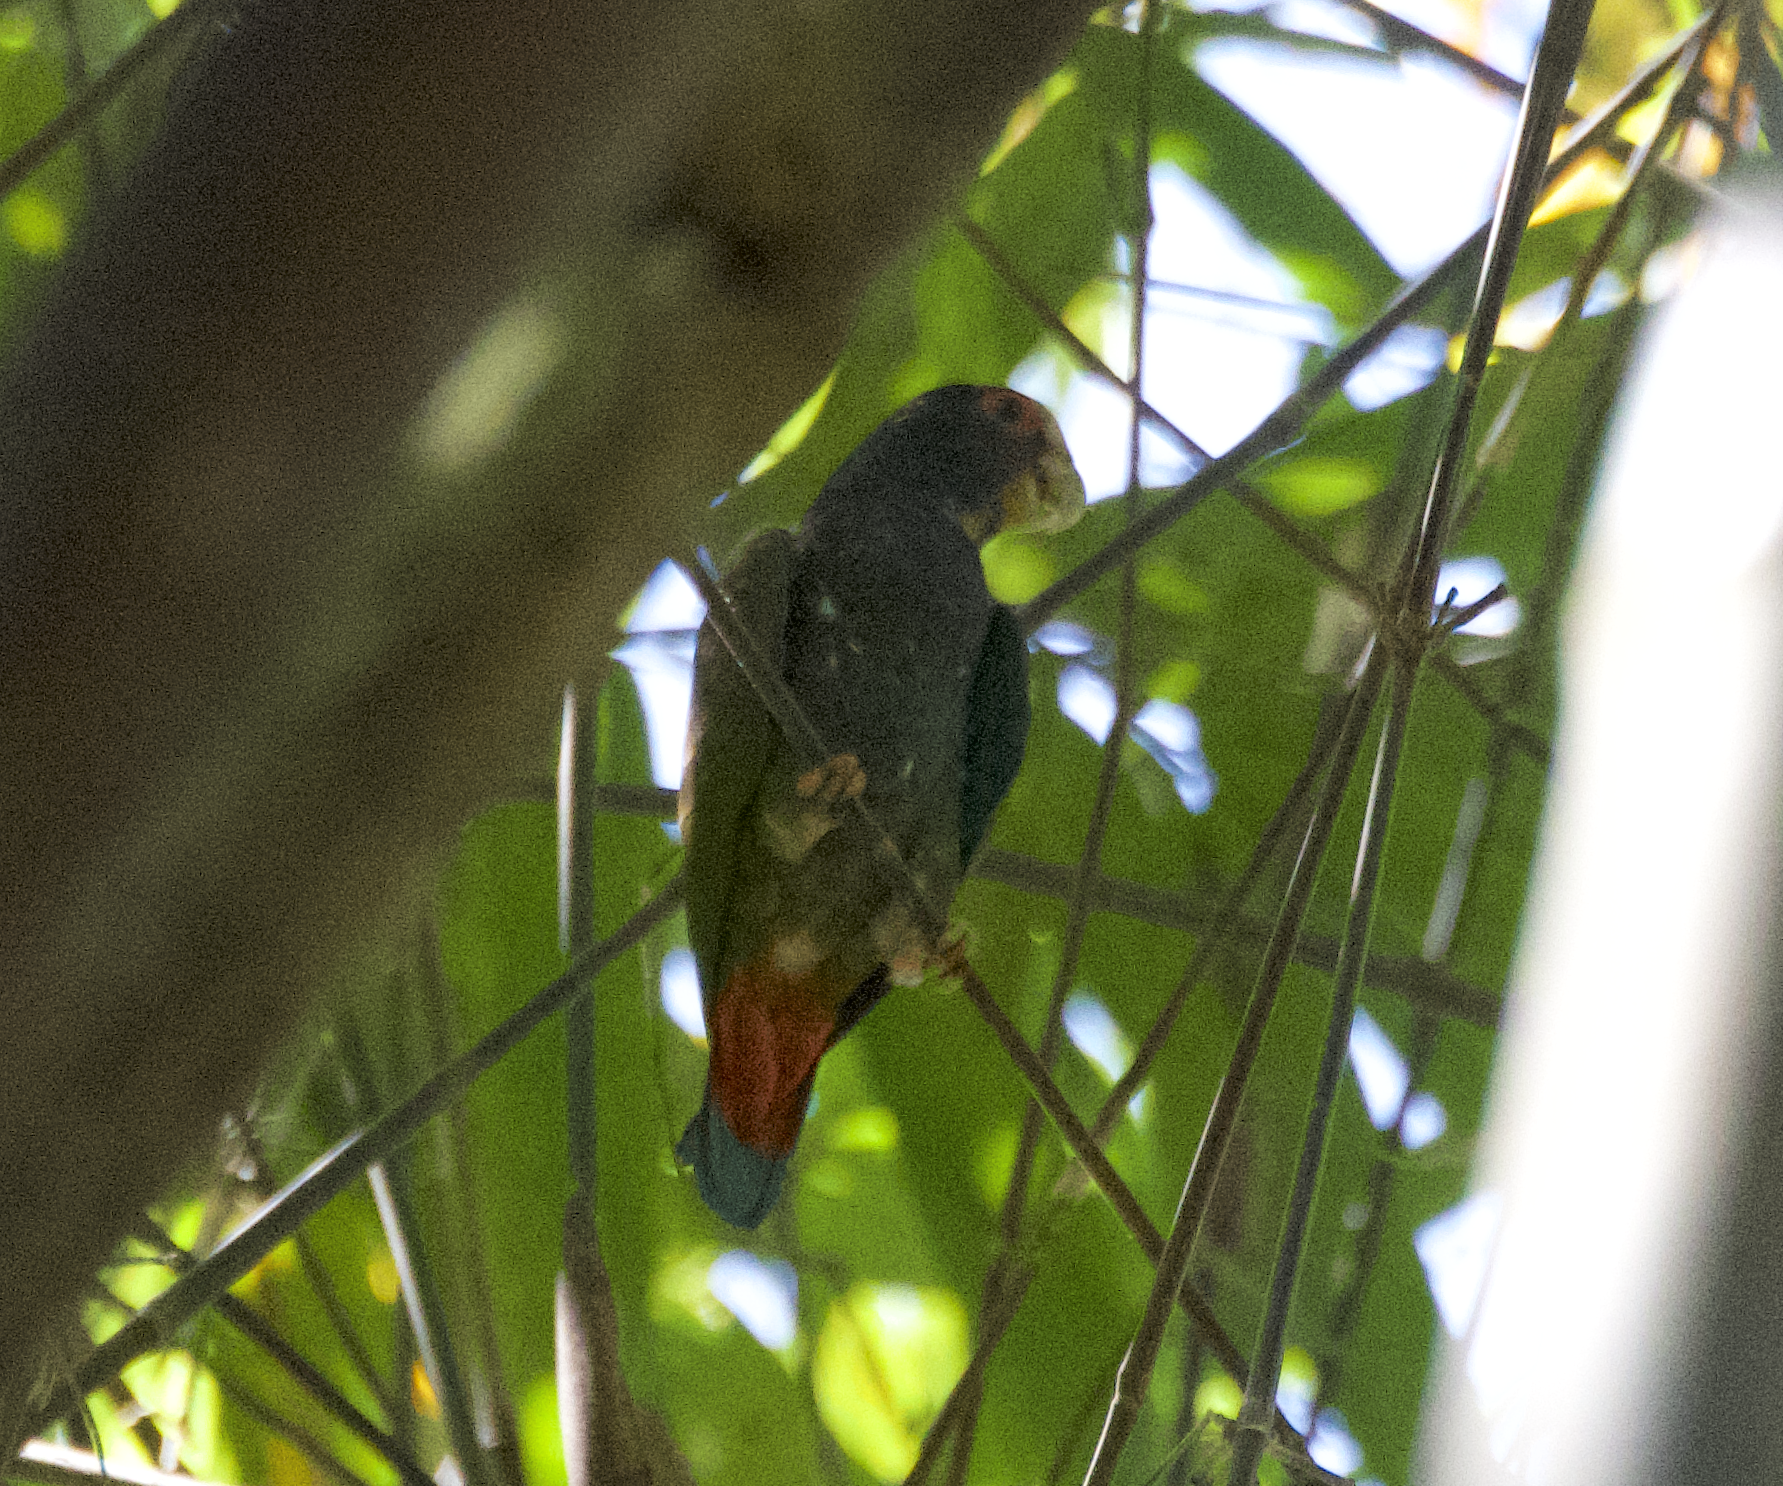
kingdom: Animalia
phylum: Chordata
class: Aves
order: Psittaciformes
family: Psittacidae
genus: Pionus
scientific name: Pionus senilis
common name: White-crowned parrot
